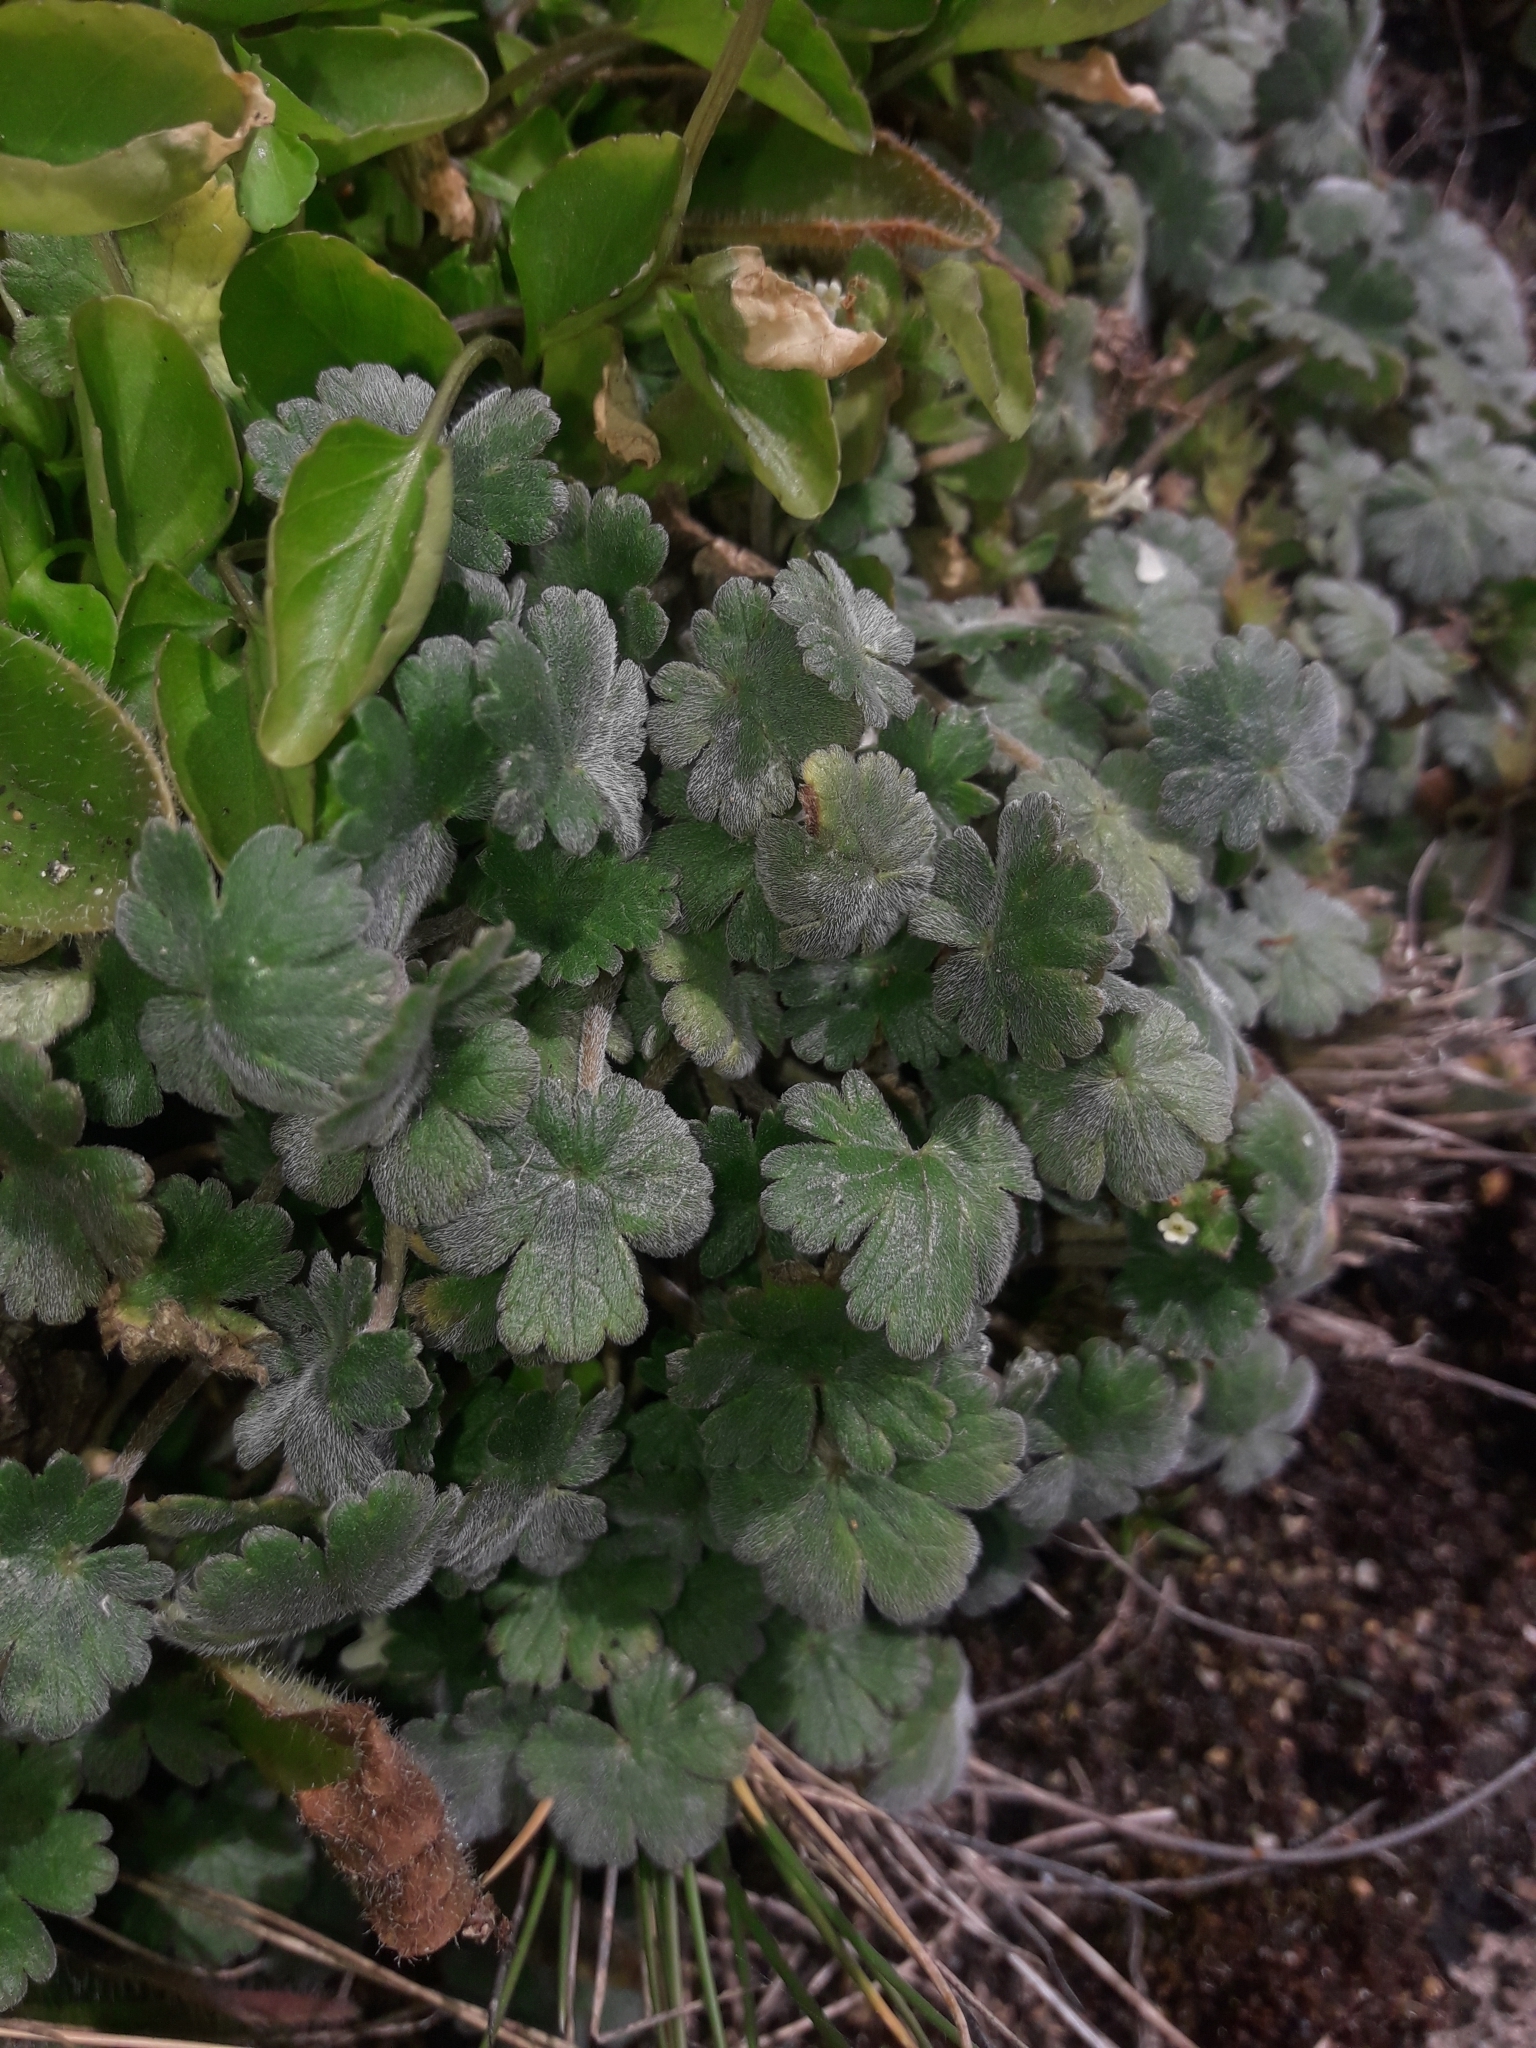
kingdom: Plantae
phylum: Tracheophyta
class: Magnoliopsida
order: Geraniales
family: Geraniaceae
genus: Geranium
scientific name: Geranium brevicaule
